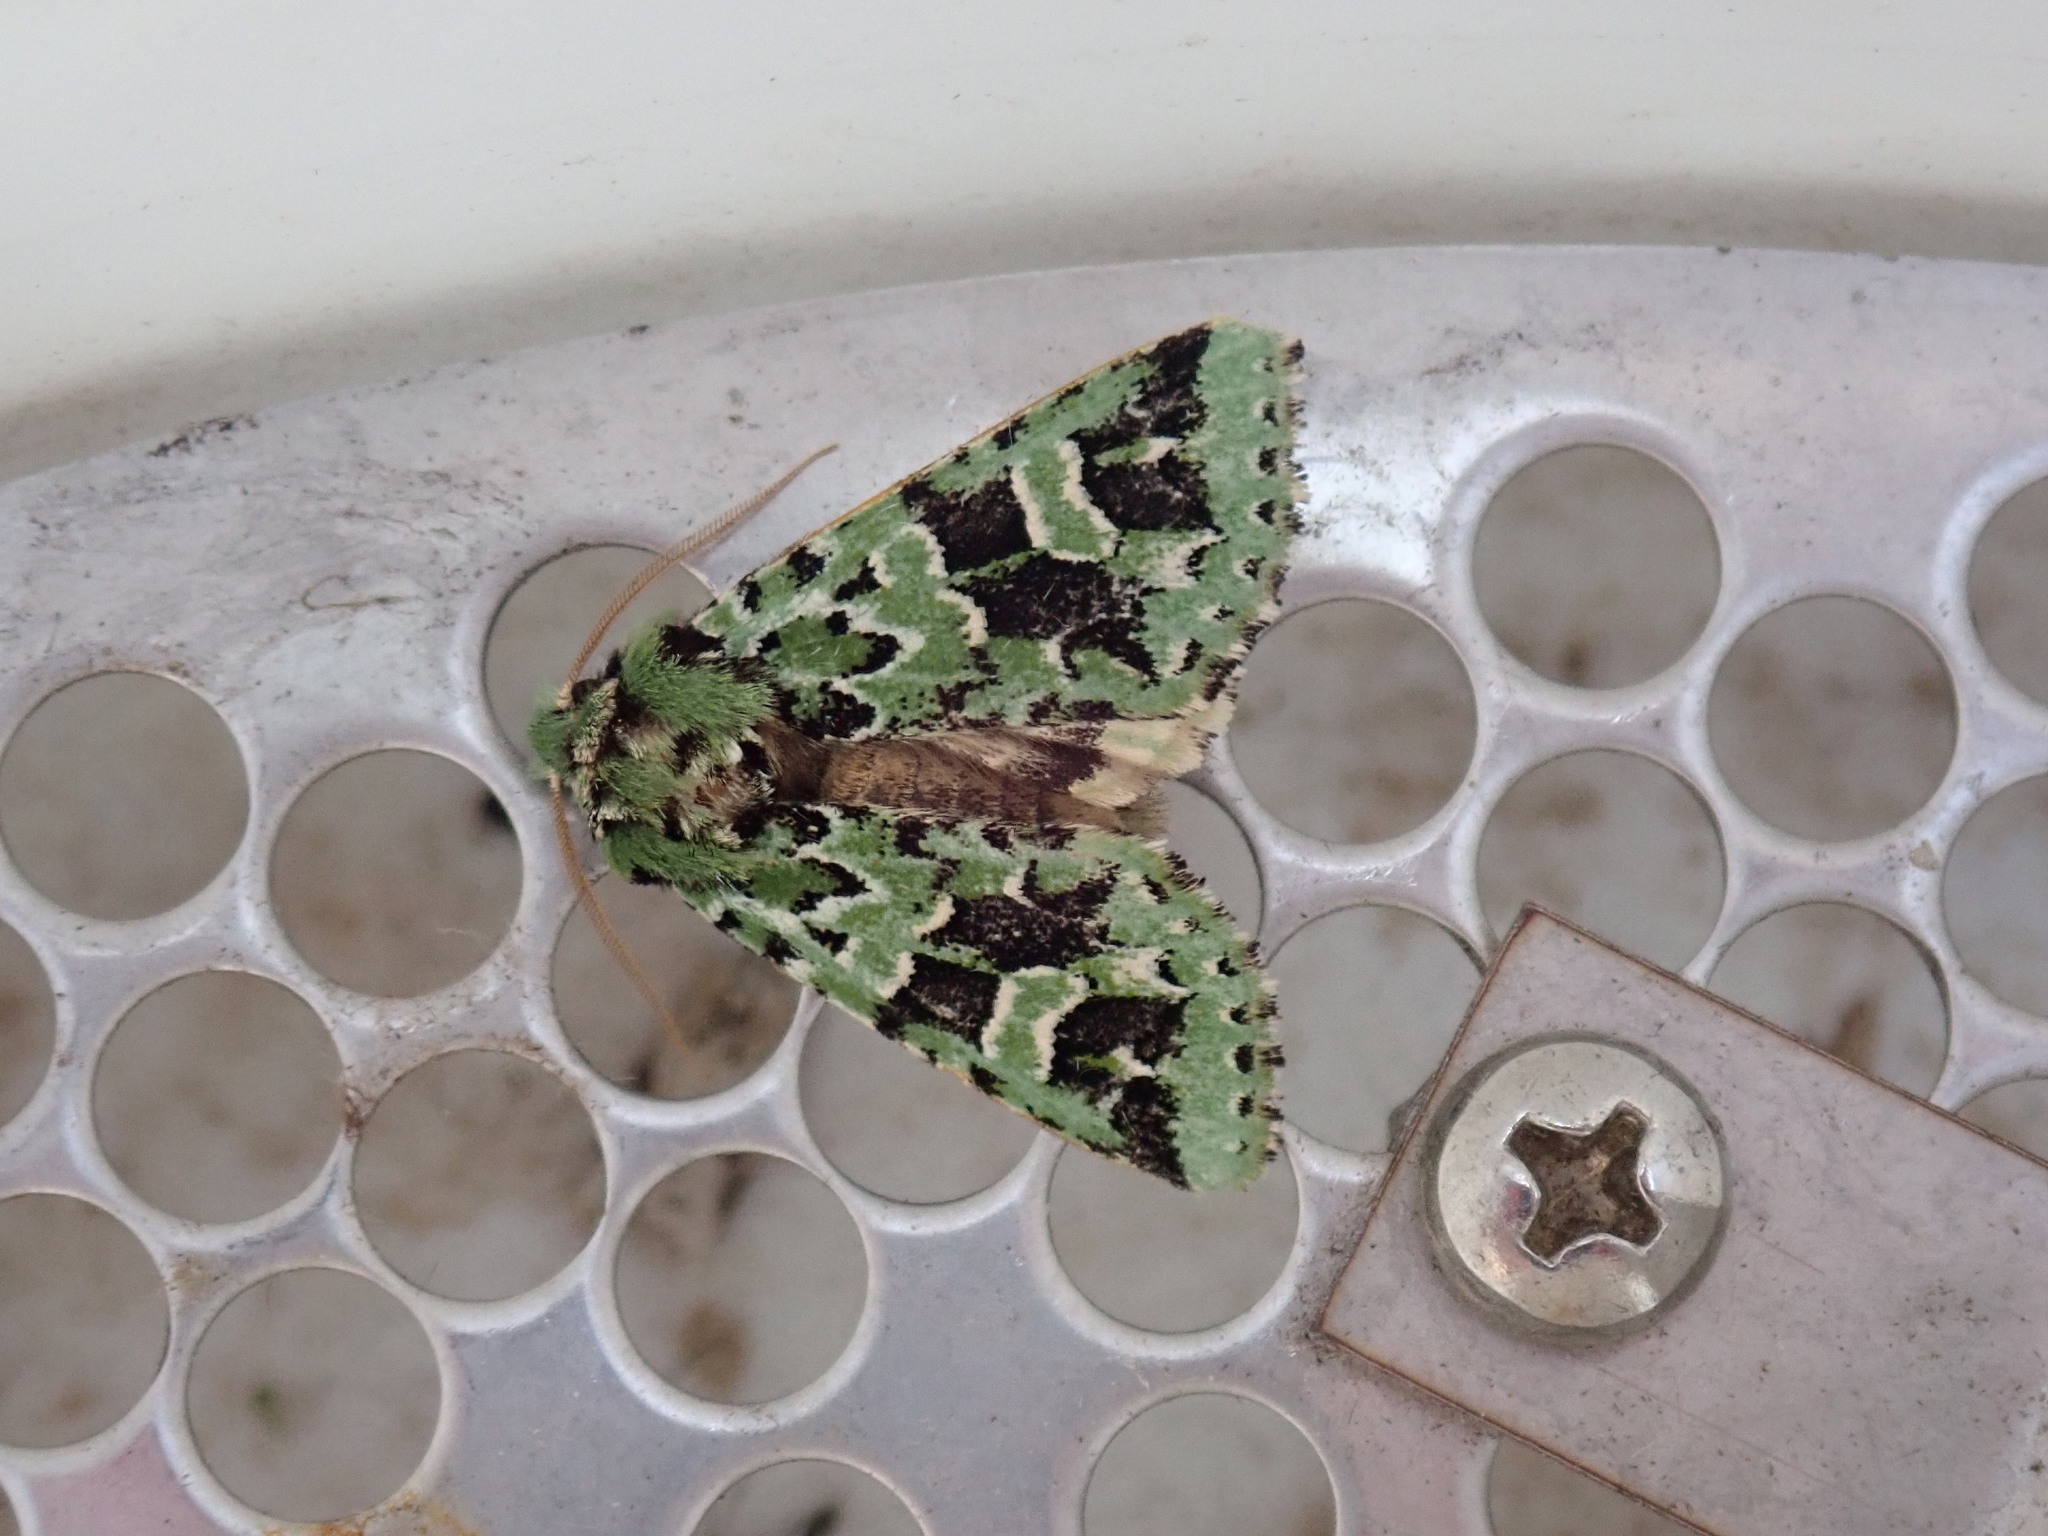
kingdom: Animalia
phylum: Arthropoda
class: Insecta
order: Lepidoptera
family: Noctuidae
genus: Feralia
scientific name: Feralia comstocki
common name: Comstock's sallow
